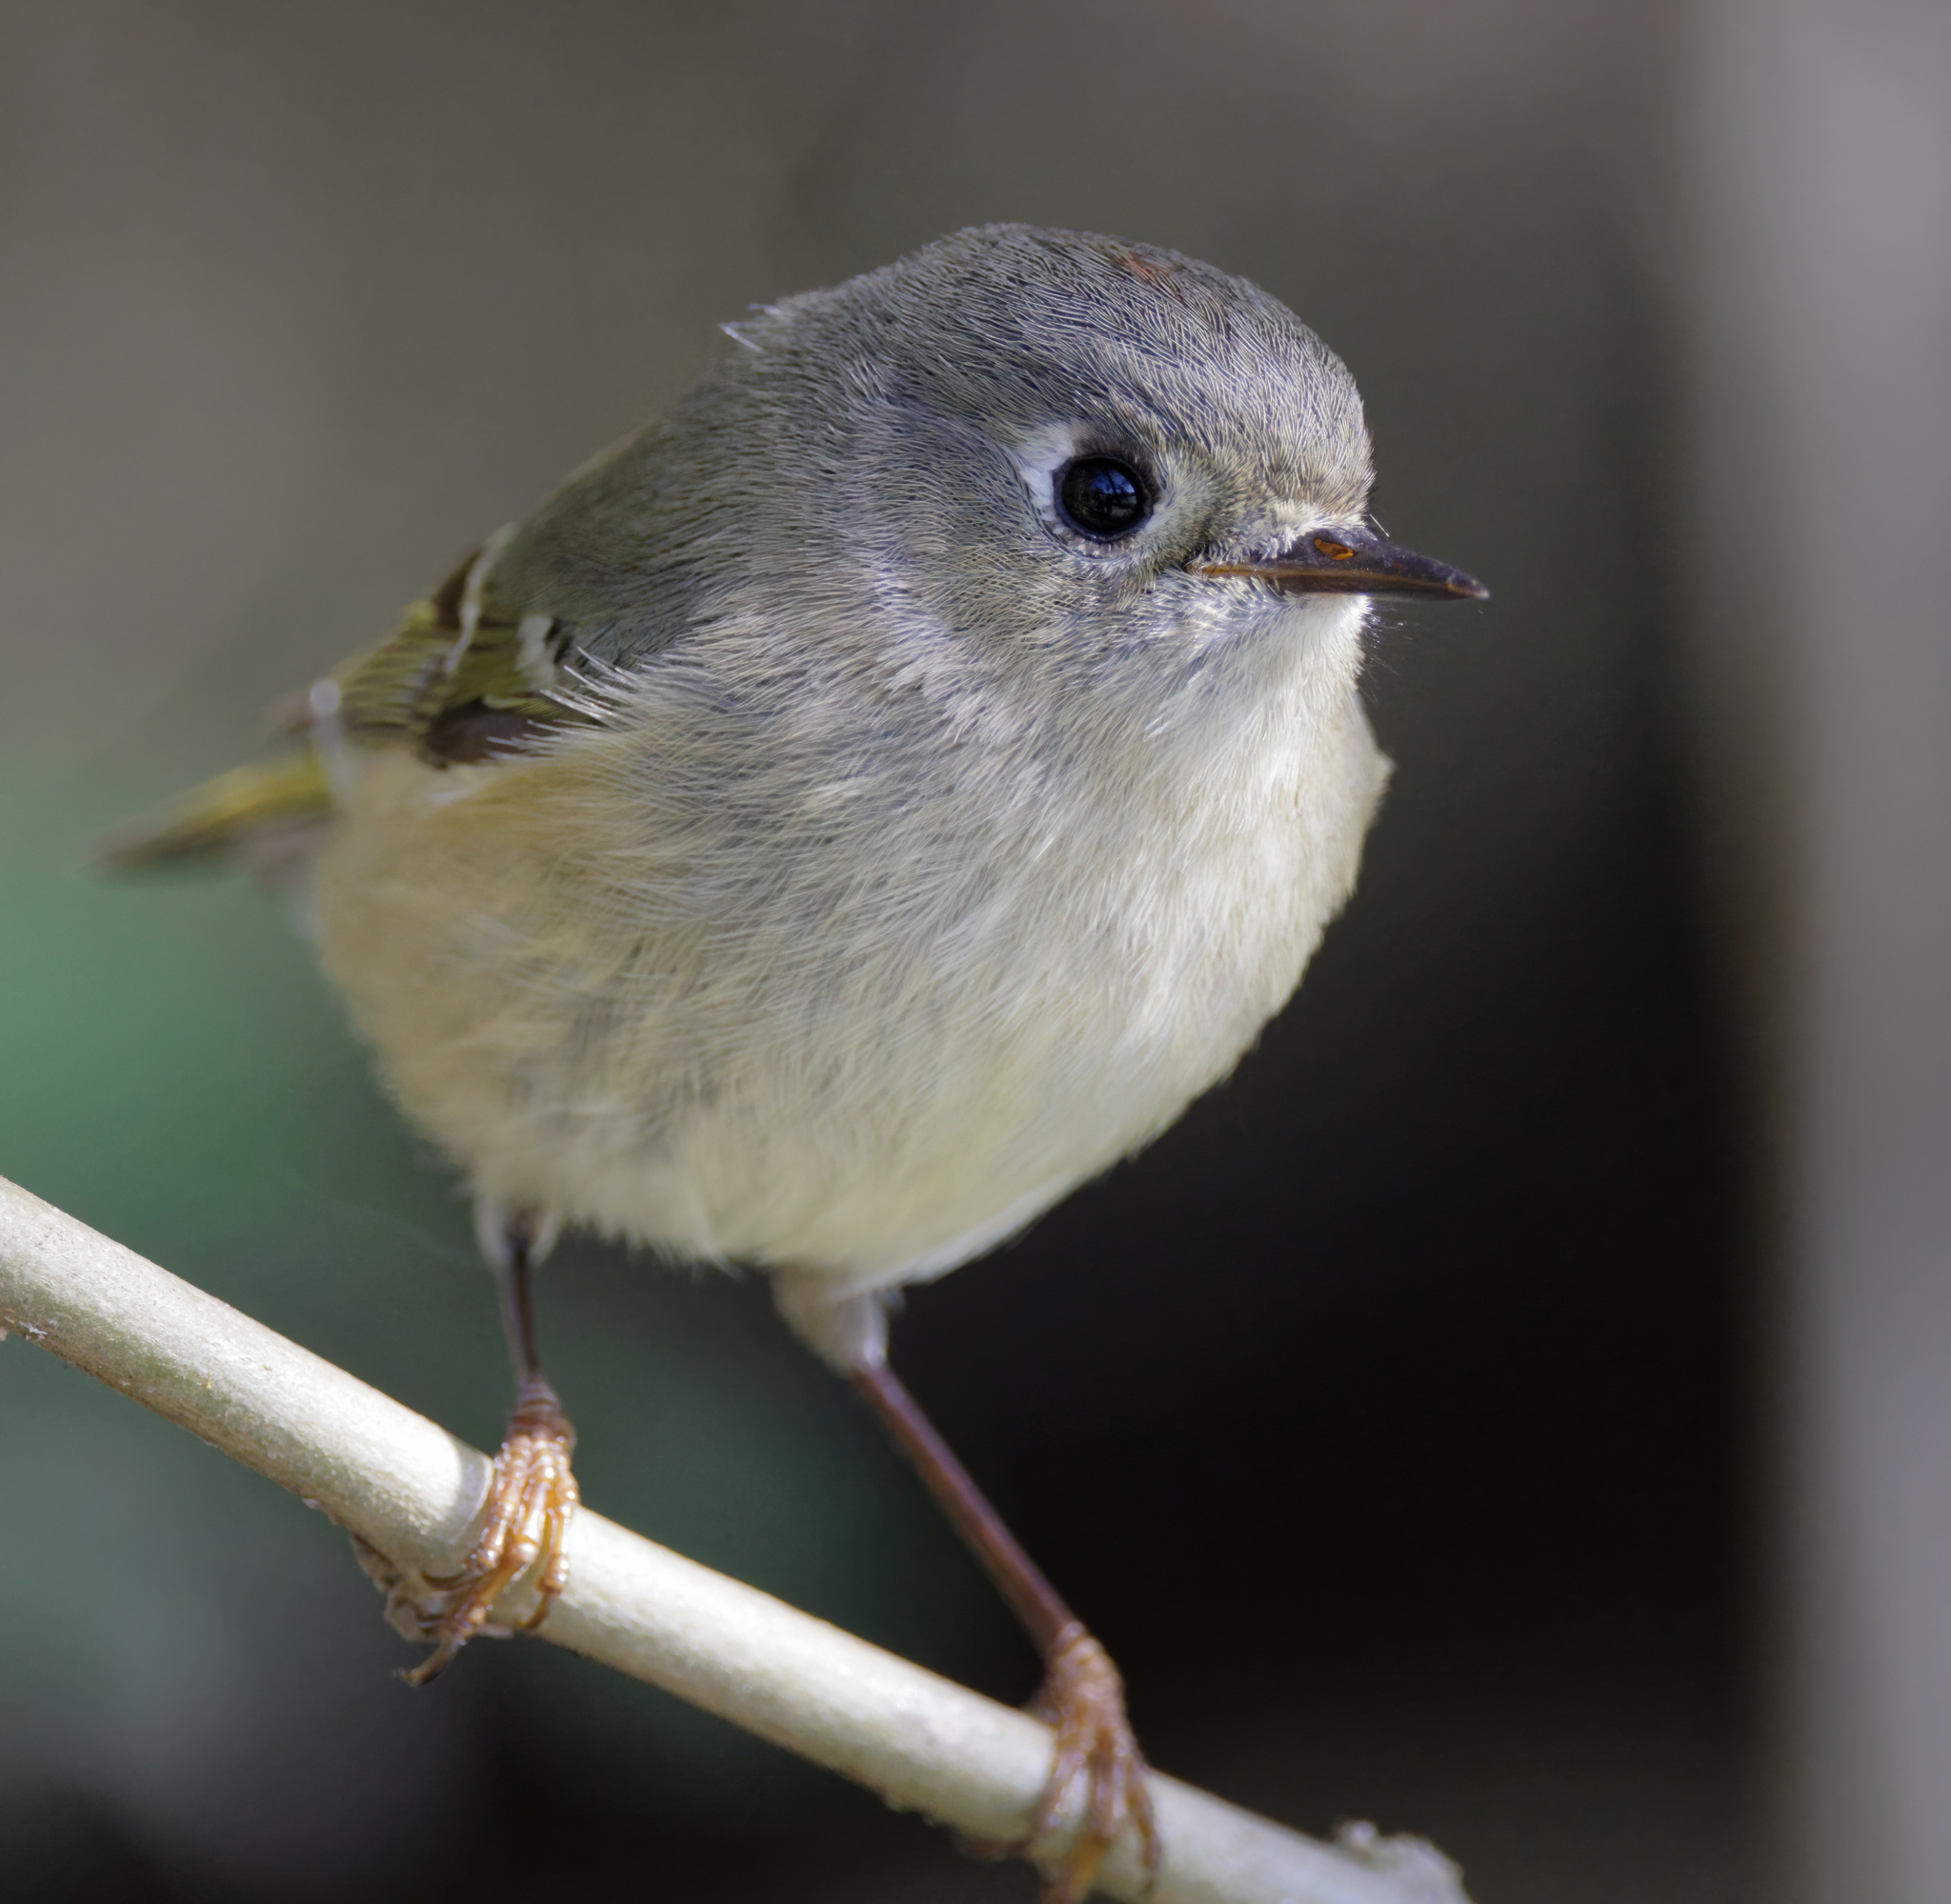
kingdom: Animalia
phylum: Chordata
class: Aves
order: Passeriformes
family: Regulidae
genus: Regulus
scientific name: Regulus calendula
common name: Ruby-crowned kinglet
